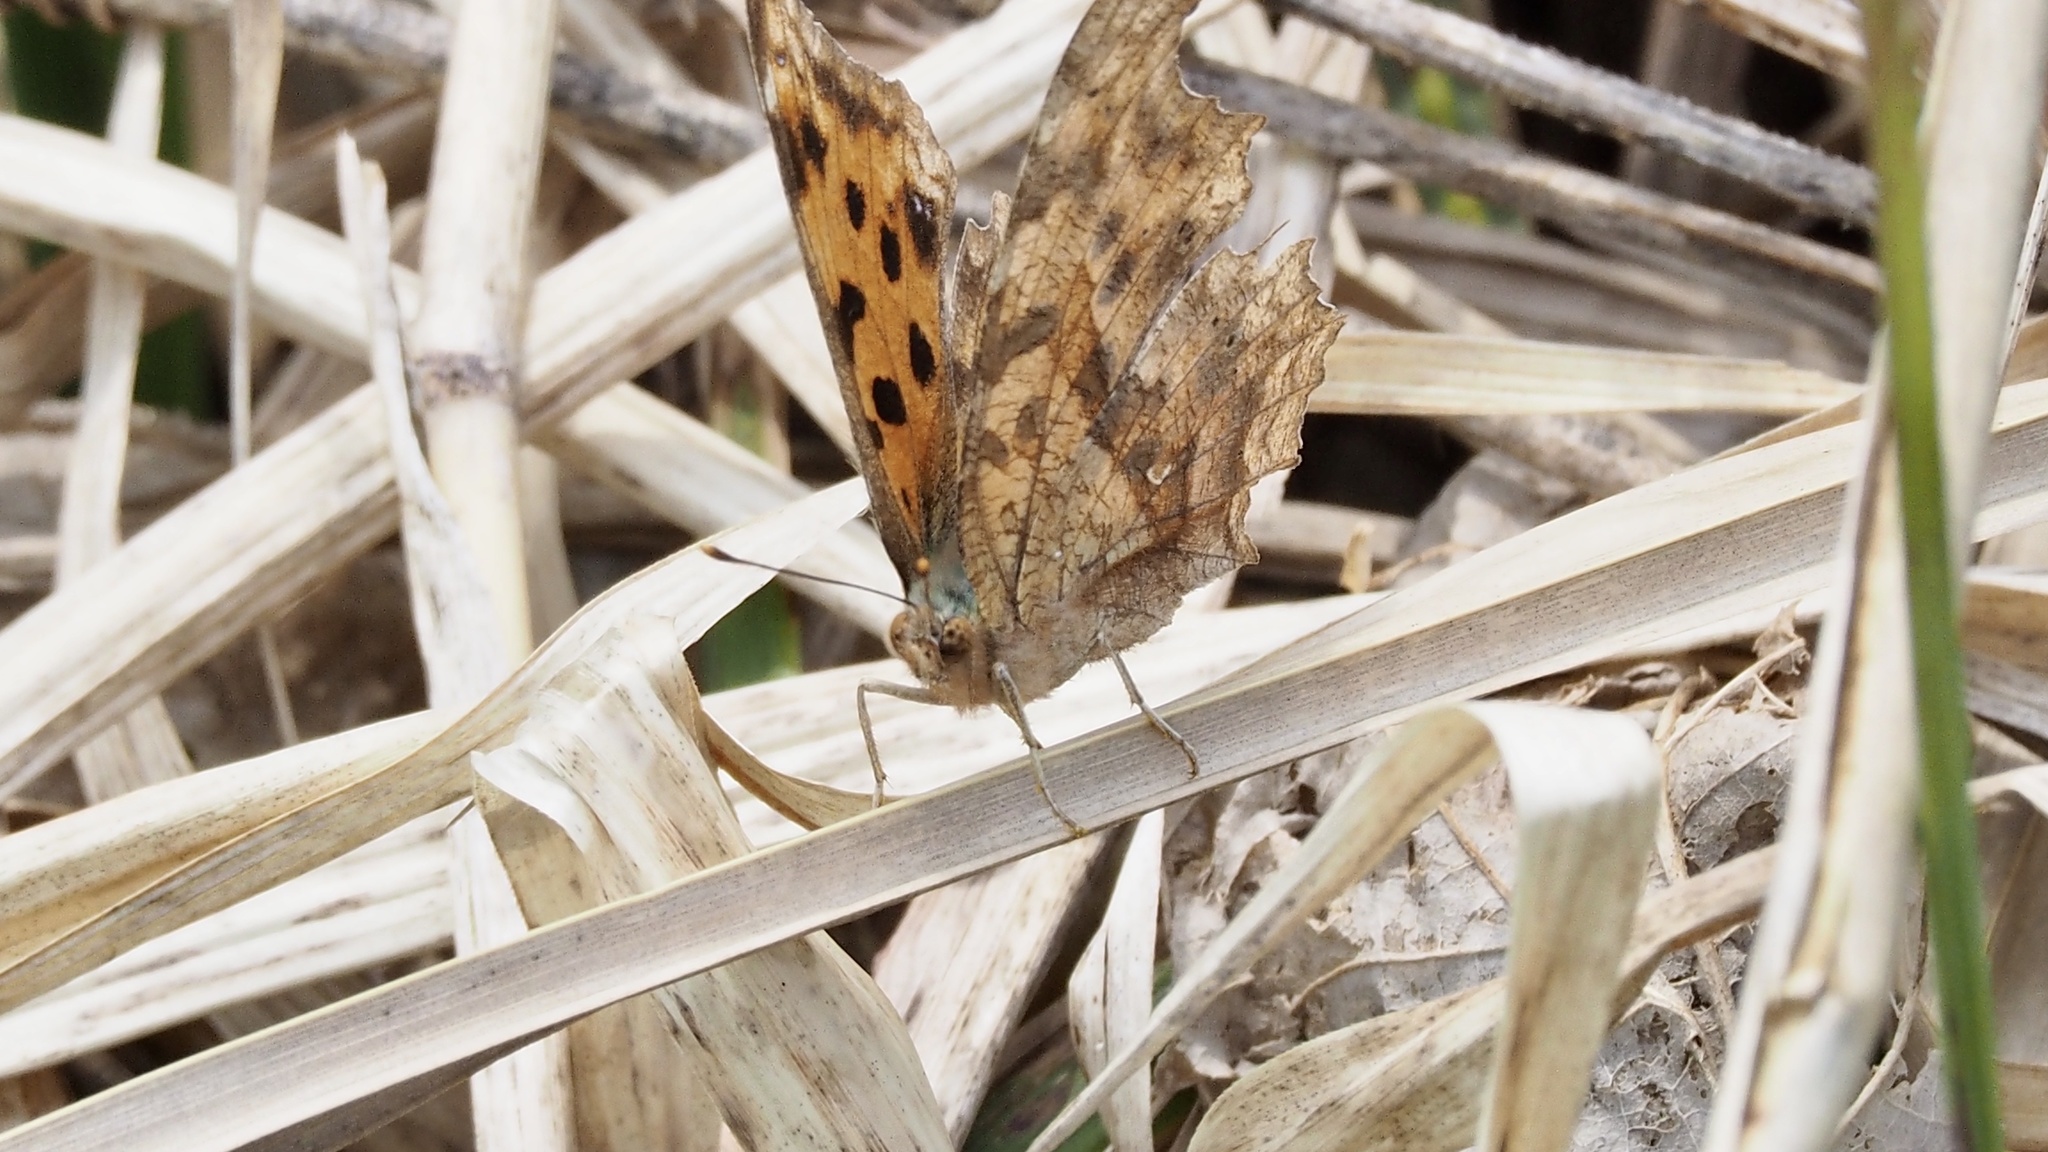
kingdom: Animalia
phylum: Arthropoda
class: Insecta
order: Lepidoptera
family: Nymphalidae
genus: Polygonia
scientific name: Polygonia c-aureum
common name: Asian comma
